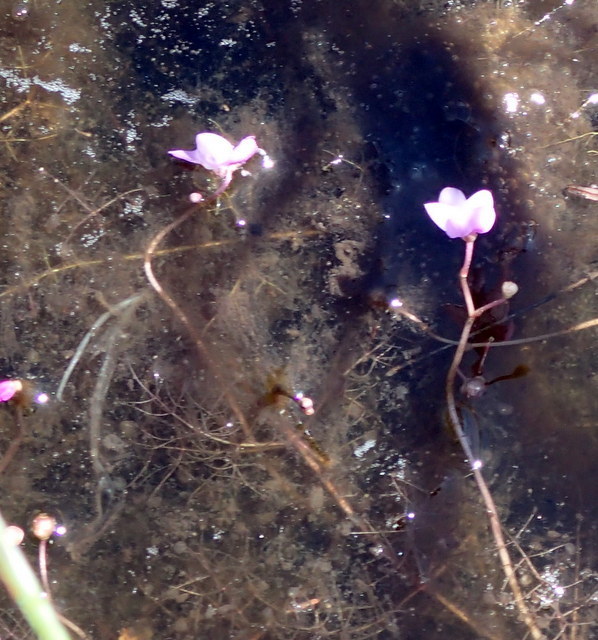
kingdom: Plantae
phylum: Tracheophyta
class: Magnoliopsida
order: Lamiales
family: Lentibulariaceae
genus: Utricularia
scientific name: Utricularia purpurea
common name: Eastern purple bladderwort
